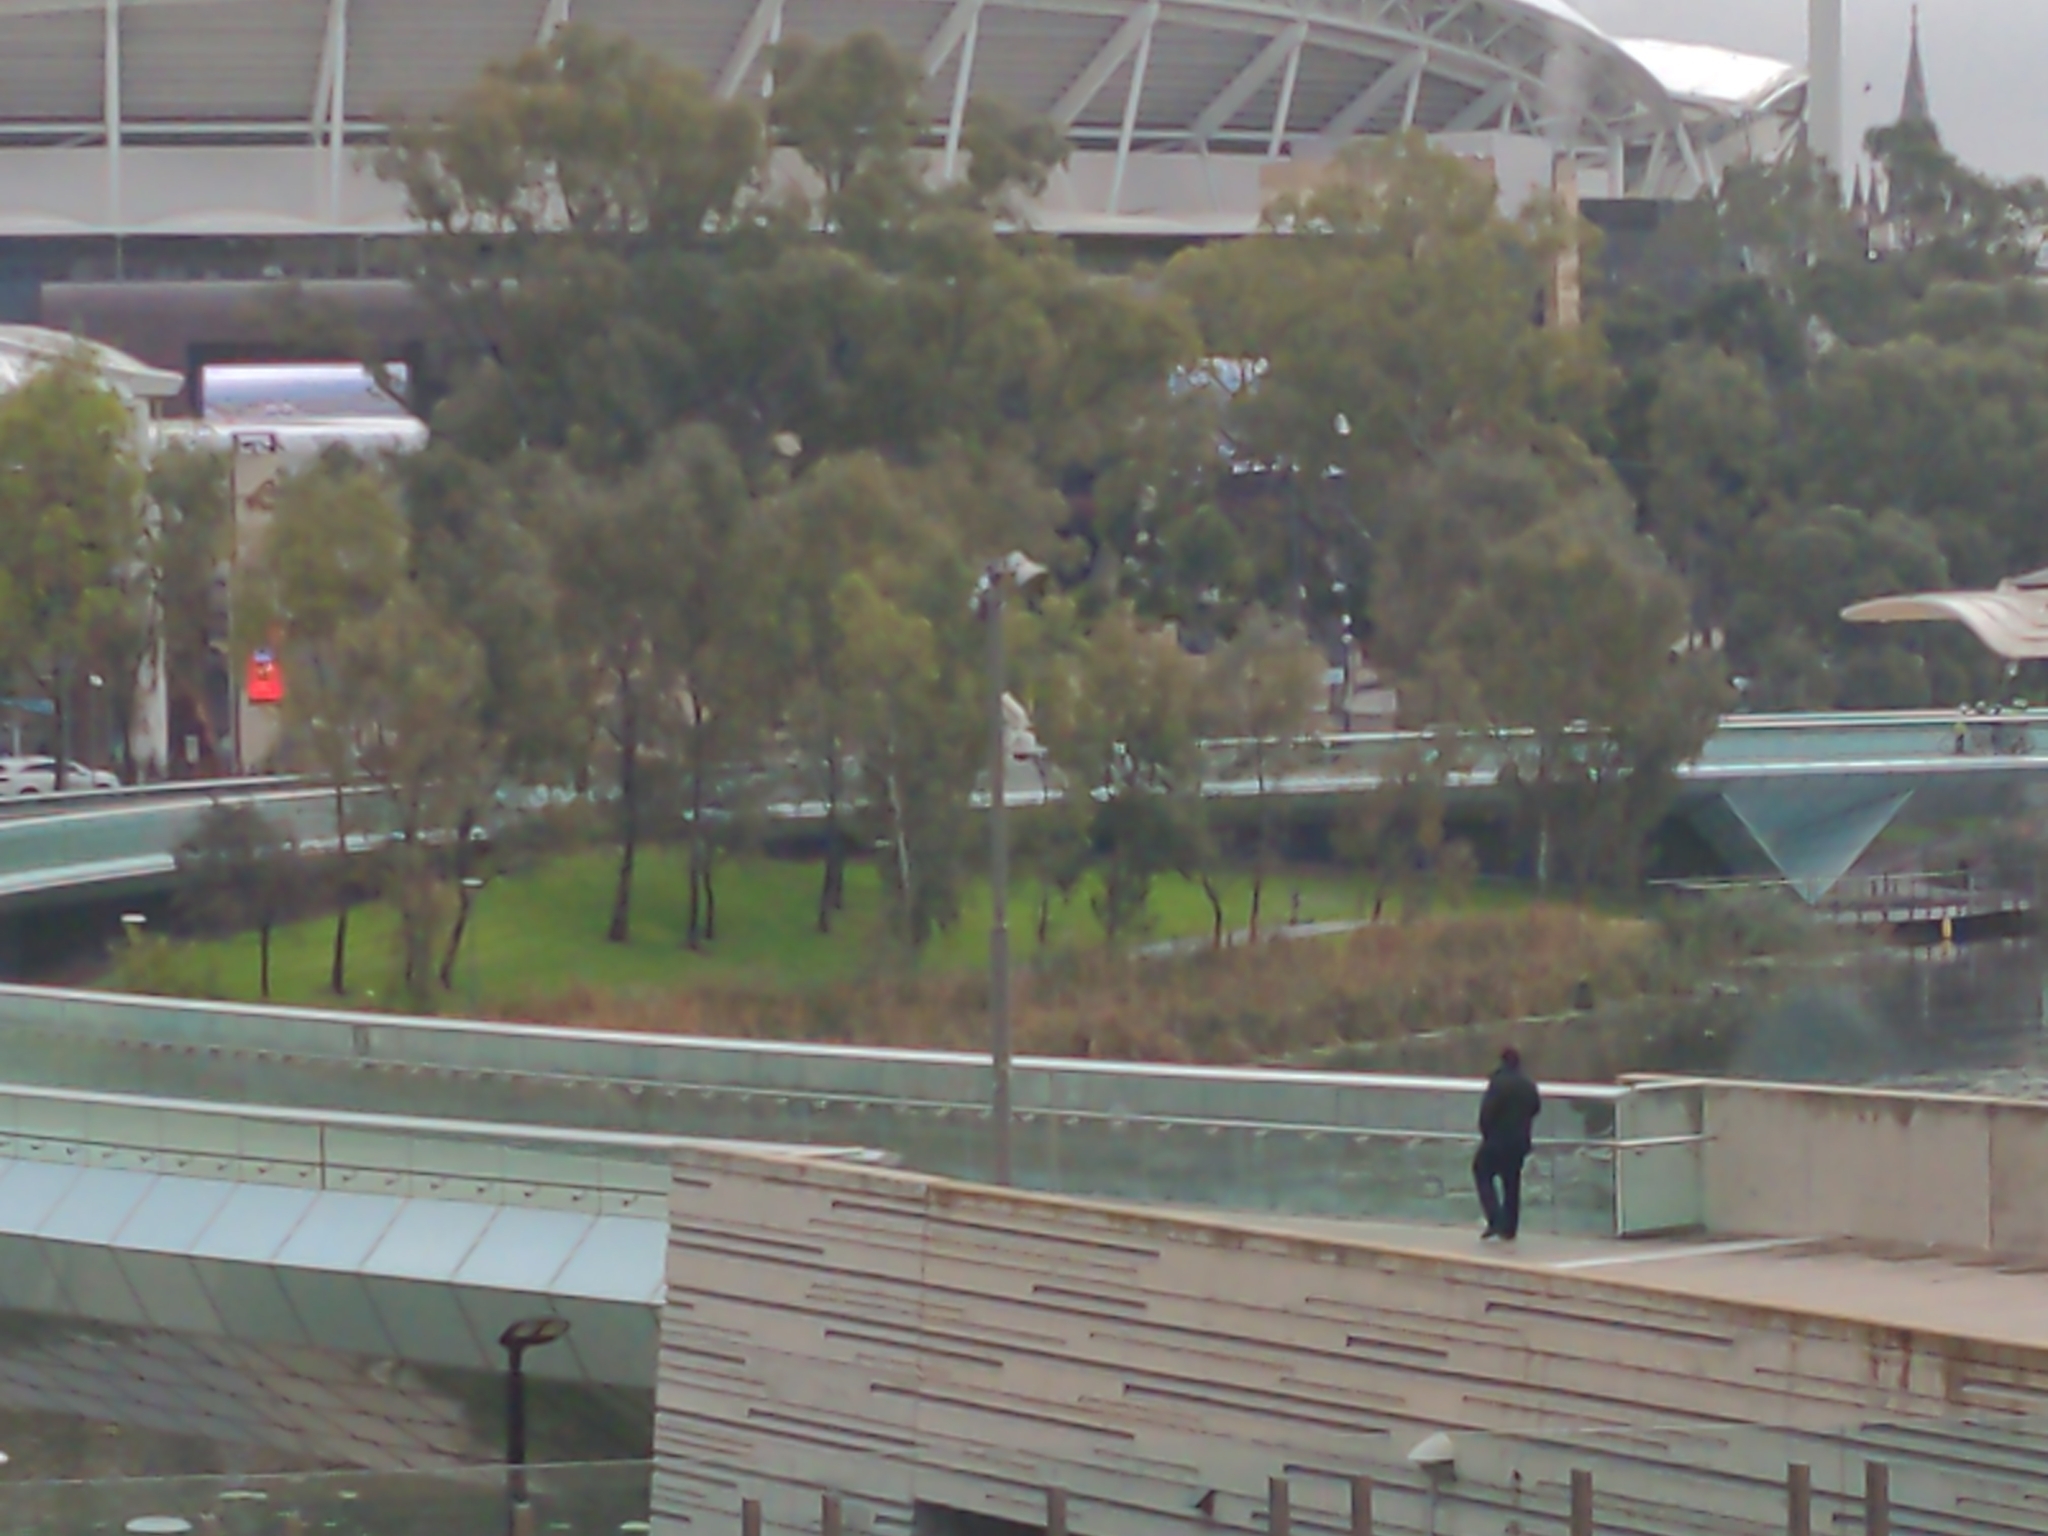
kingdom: Animalia
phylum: Chordata
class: Aves
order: Psittaciformes
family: Psittacidae
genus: Cacatua
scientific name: Cacatua galerita
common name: Sulphur-crested cockatoo
